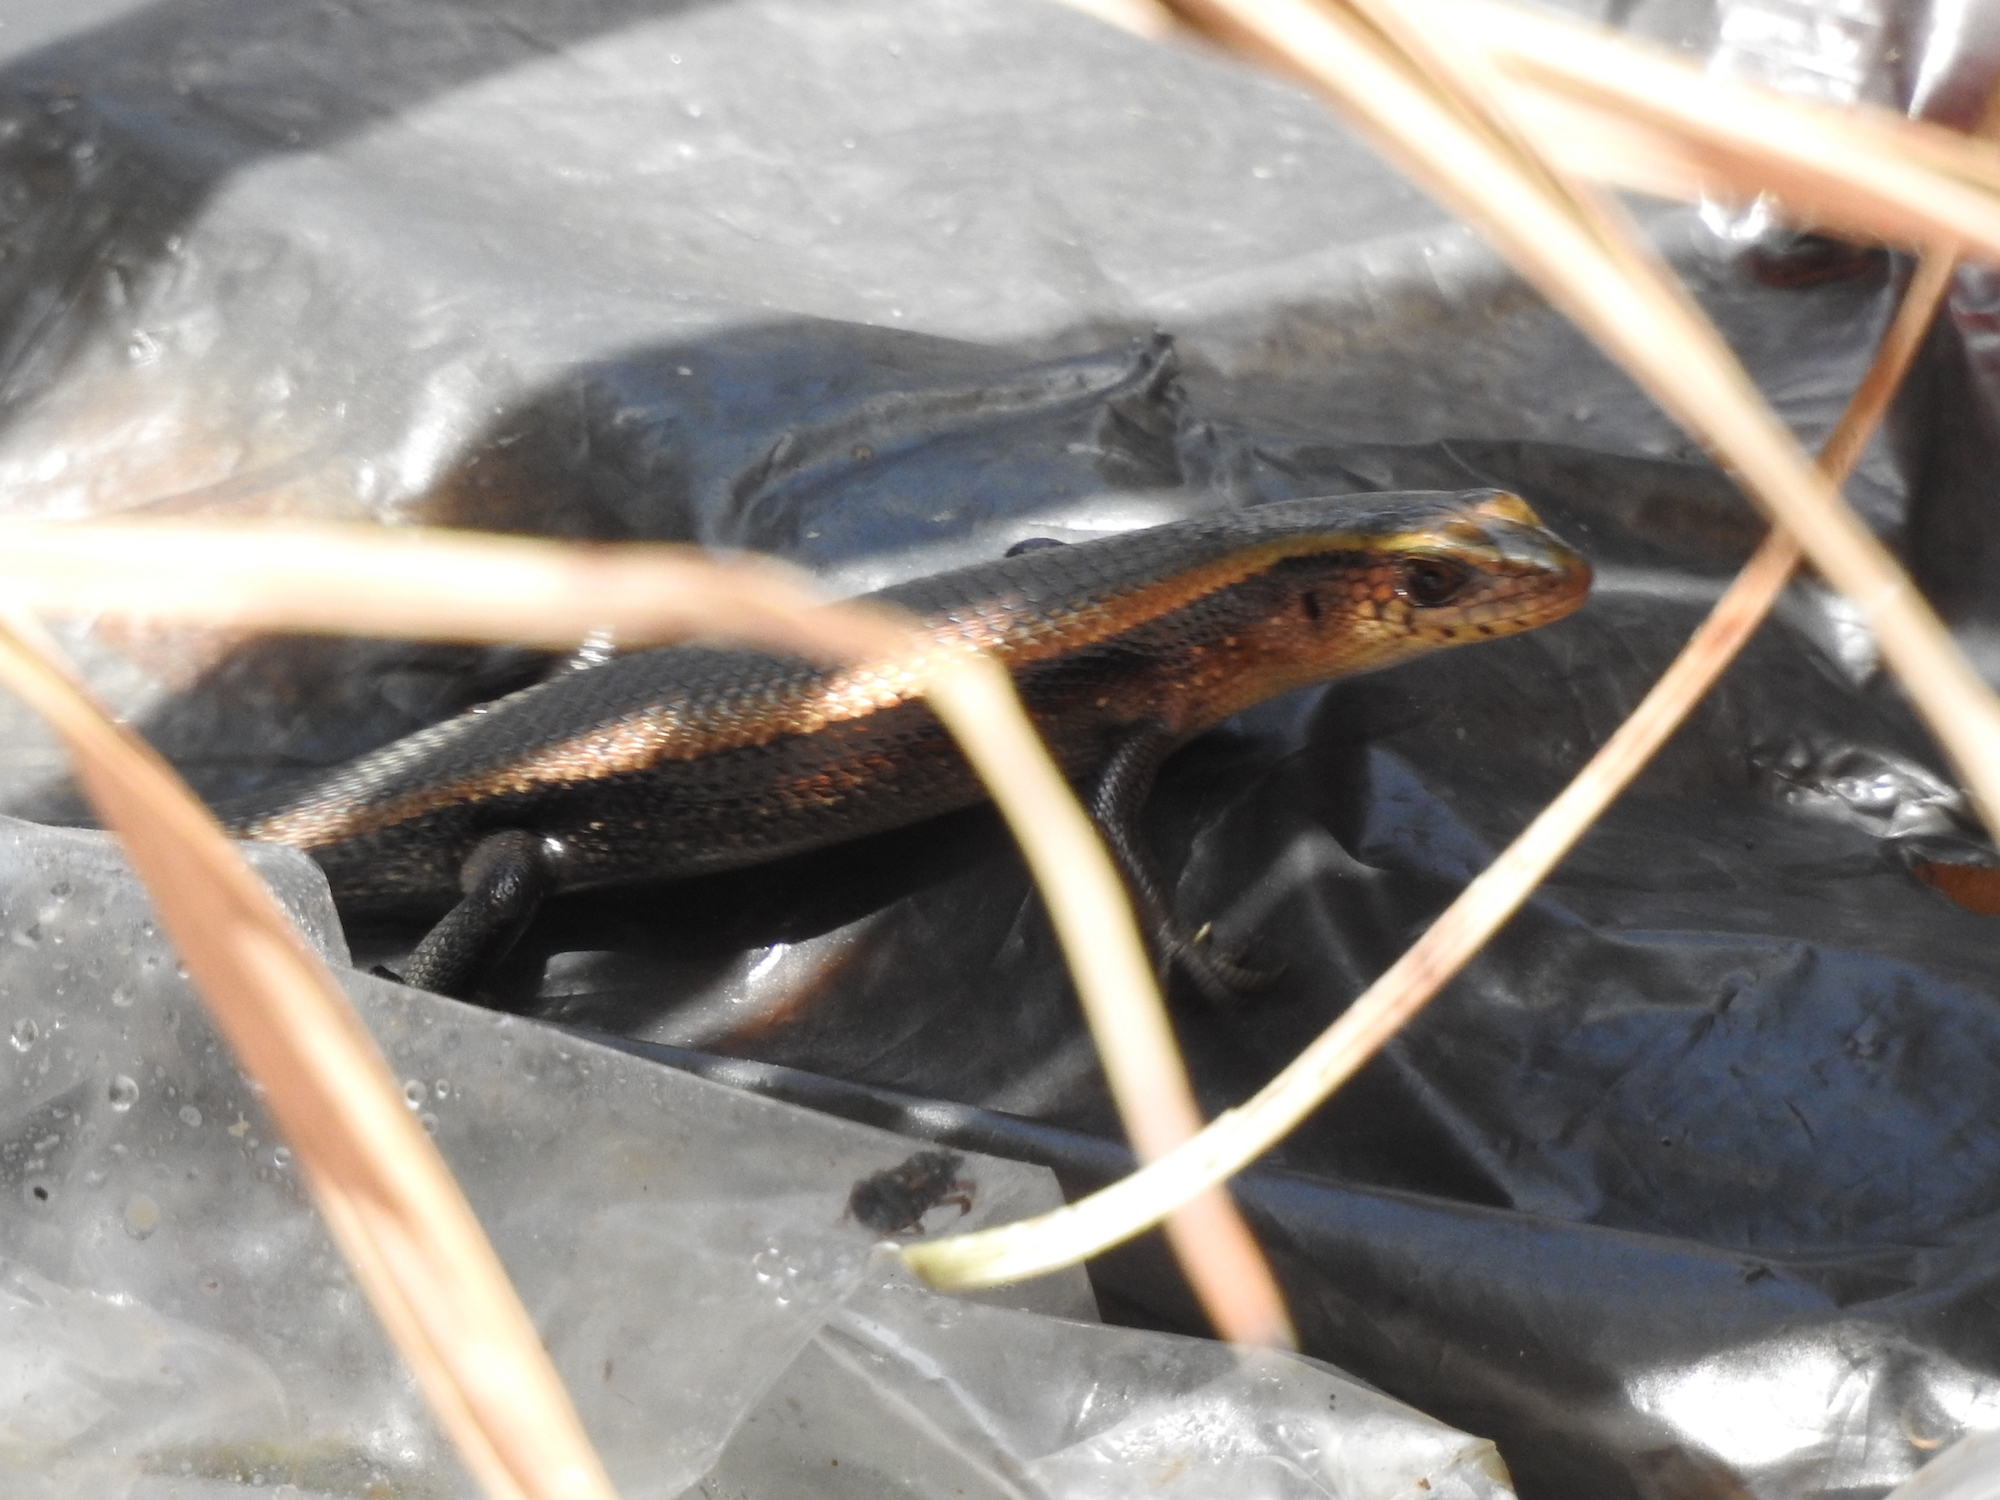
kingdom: Animalia
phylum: Chordata
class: Squamata
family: Scincidae
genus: Eutropis
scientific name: Eutropis multifasciata
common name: Common mabuya
